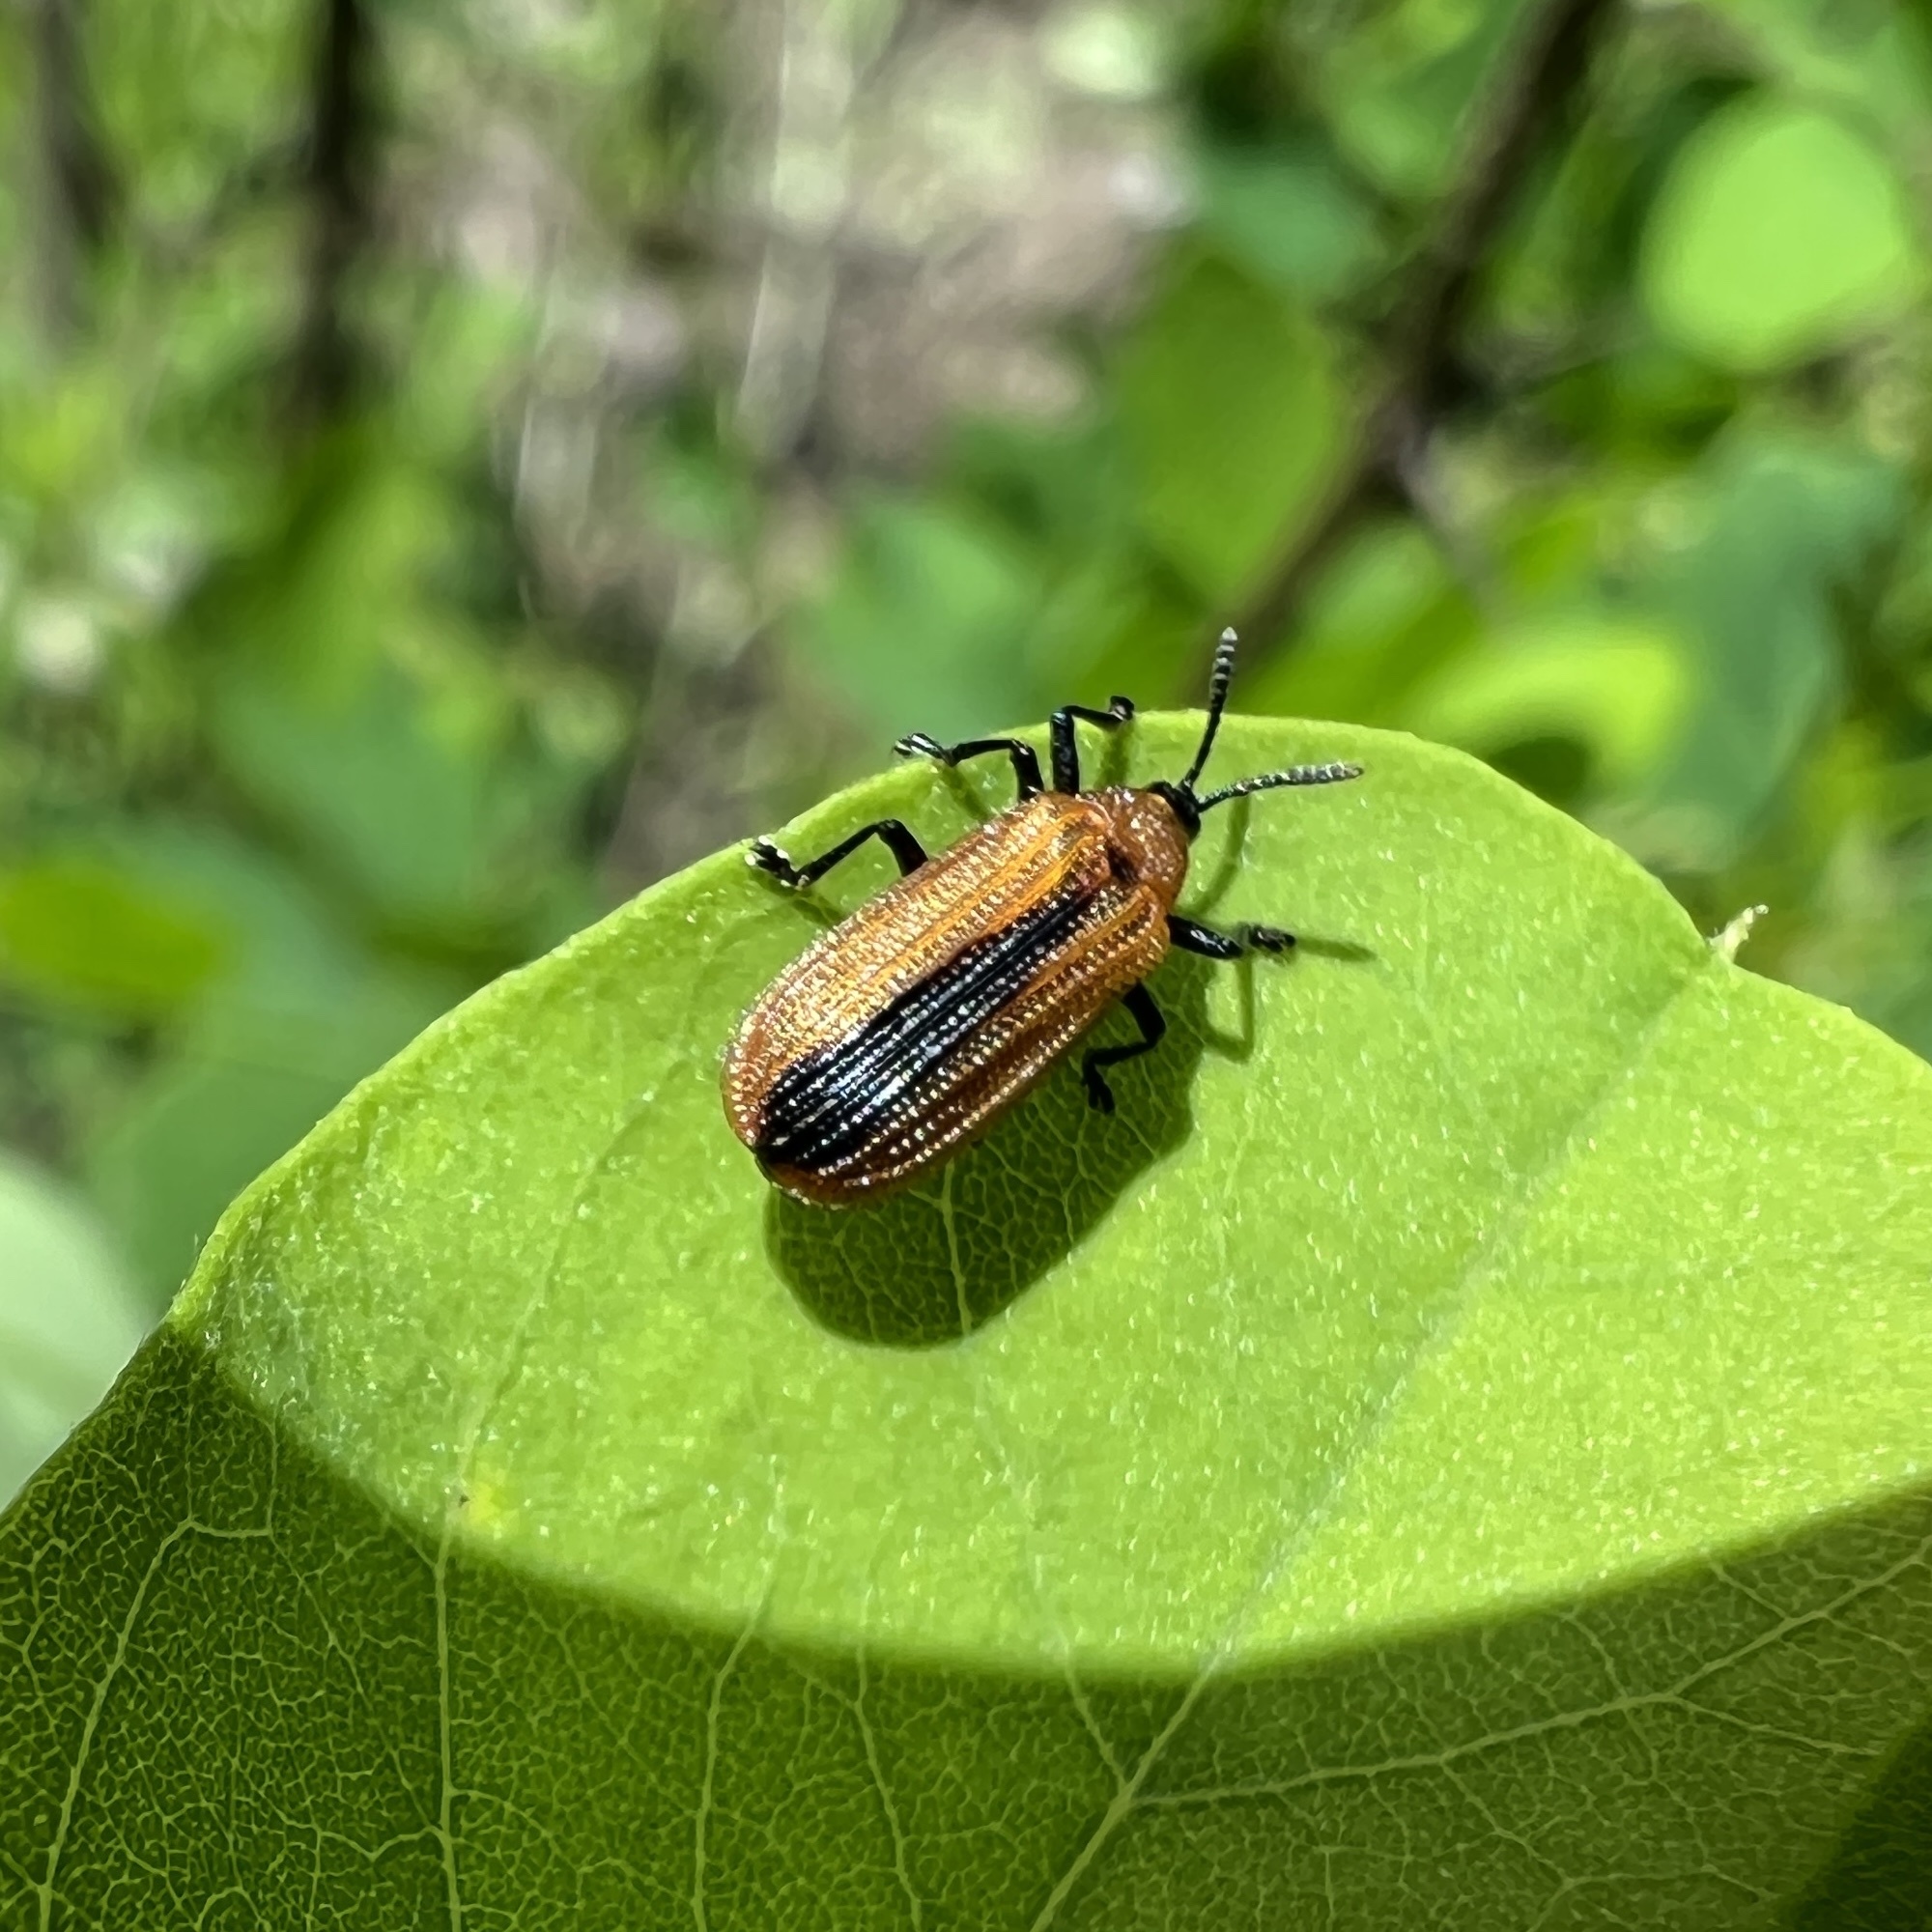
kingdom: Animalia
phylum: Arthropoda
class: Insecta
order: Coleoptera
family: Chrysomelidae
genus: Odontota
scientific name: Odontota dorsalis
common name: Locust leaf-miner beetle
